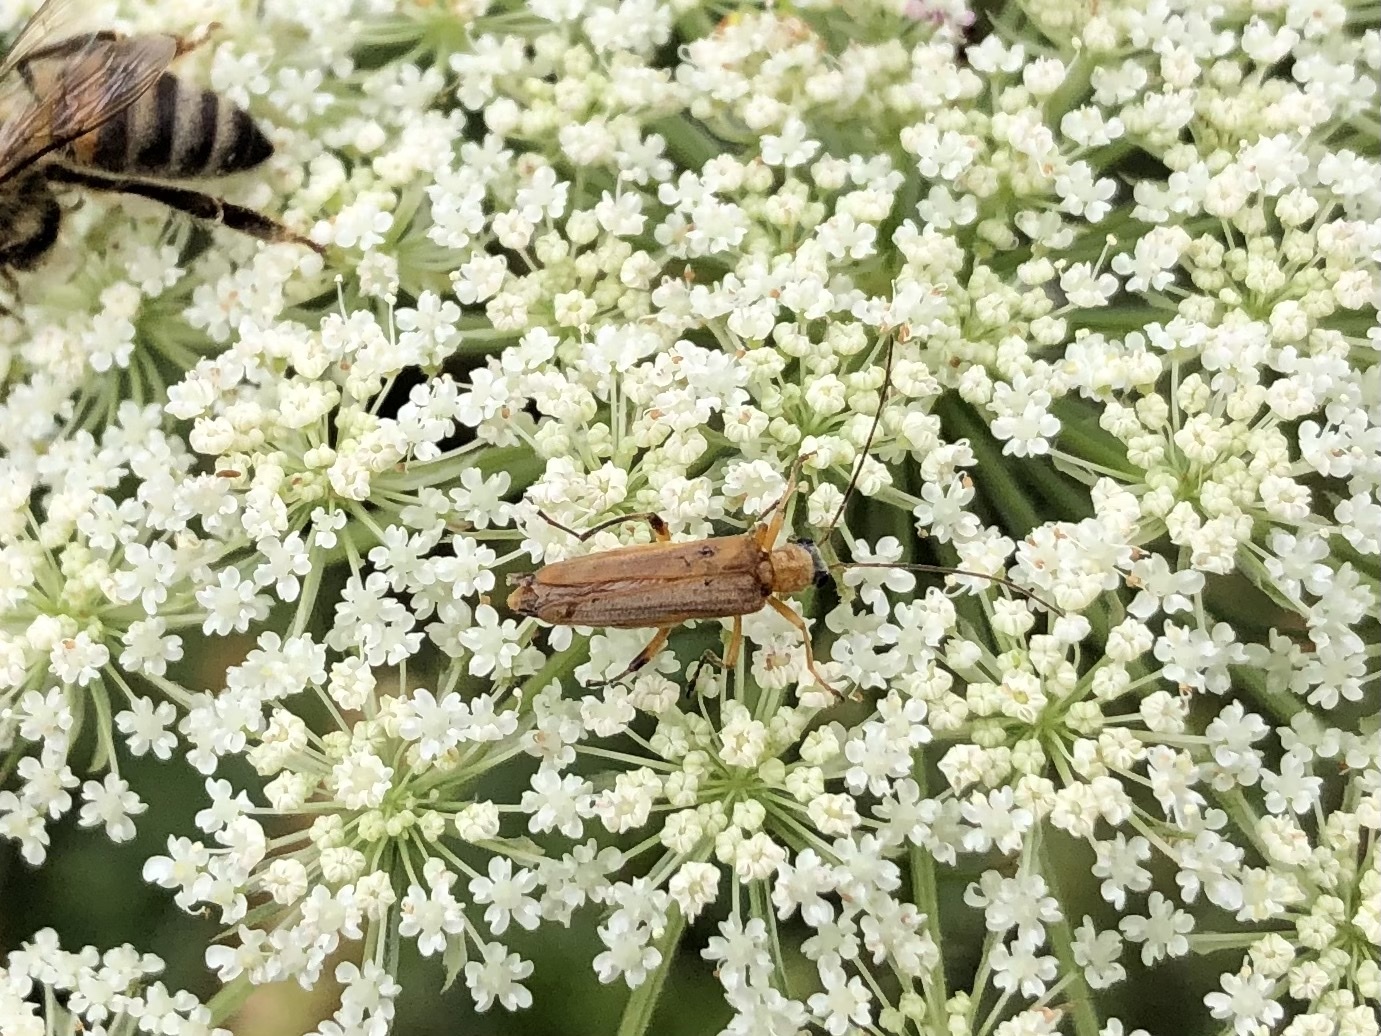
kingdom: Animalia
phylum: Arthropoda
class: Insecta
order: Coleoptera
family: Oedemeridae
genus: Oedemera
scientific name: Oedemera podagrariae
